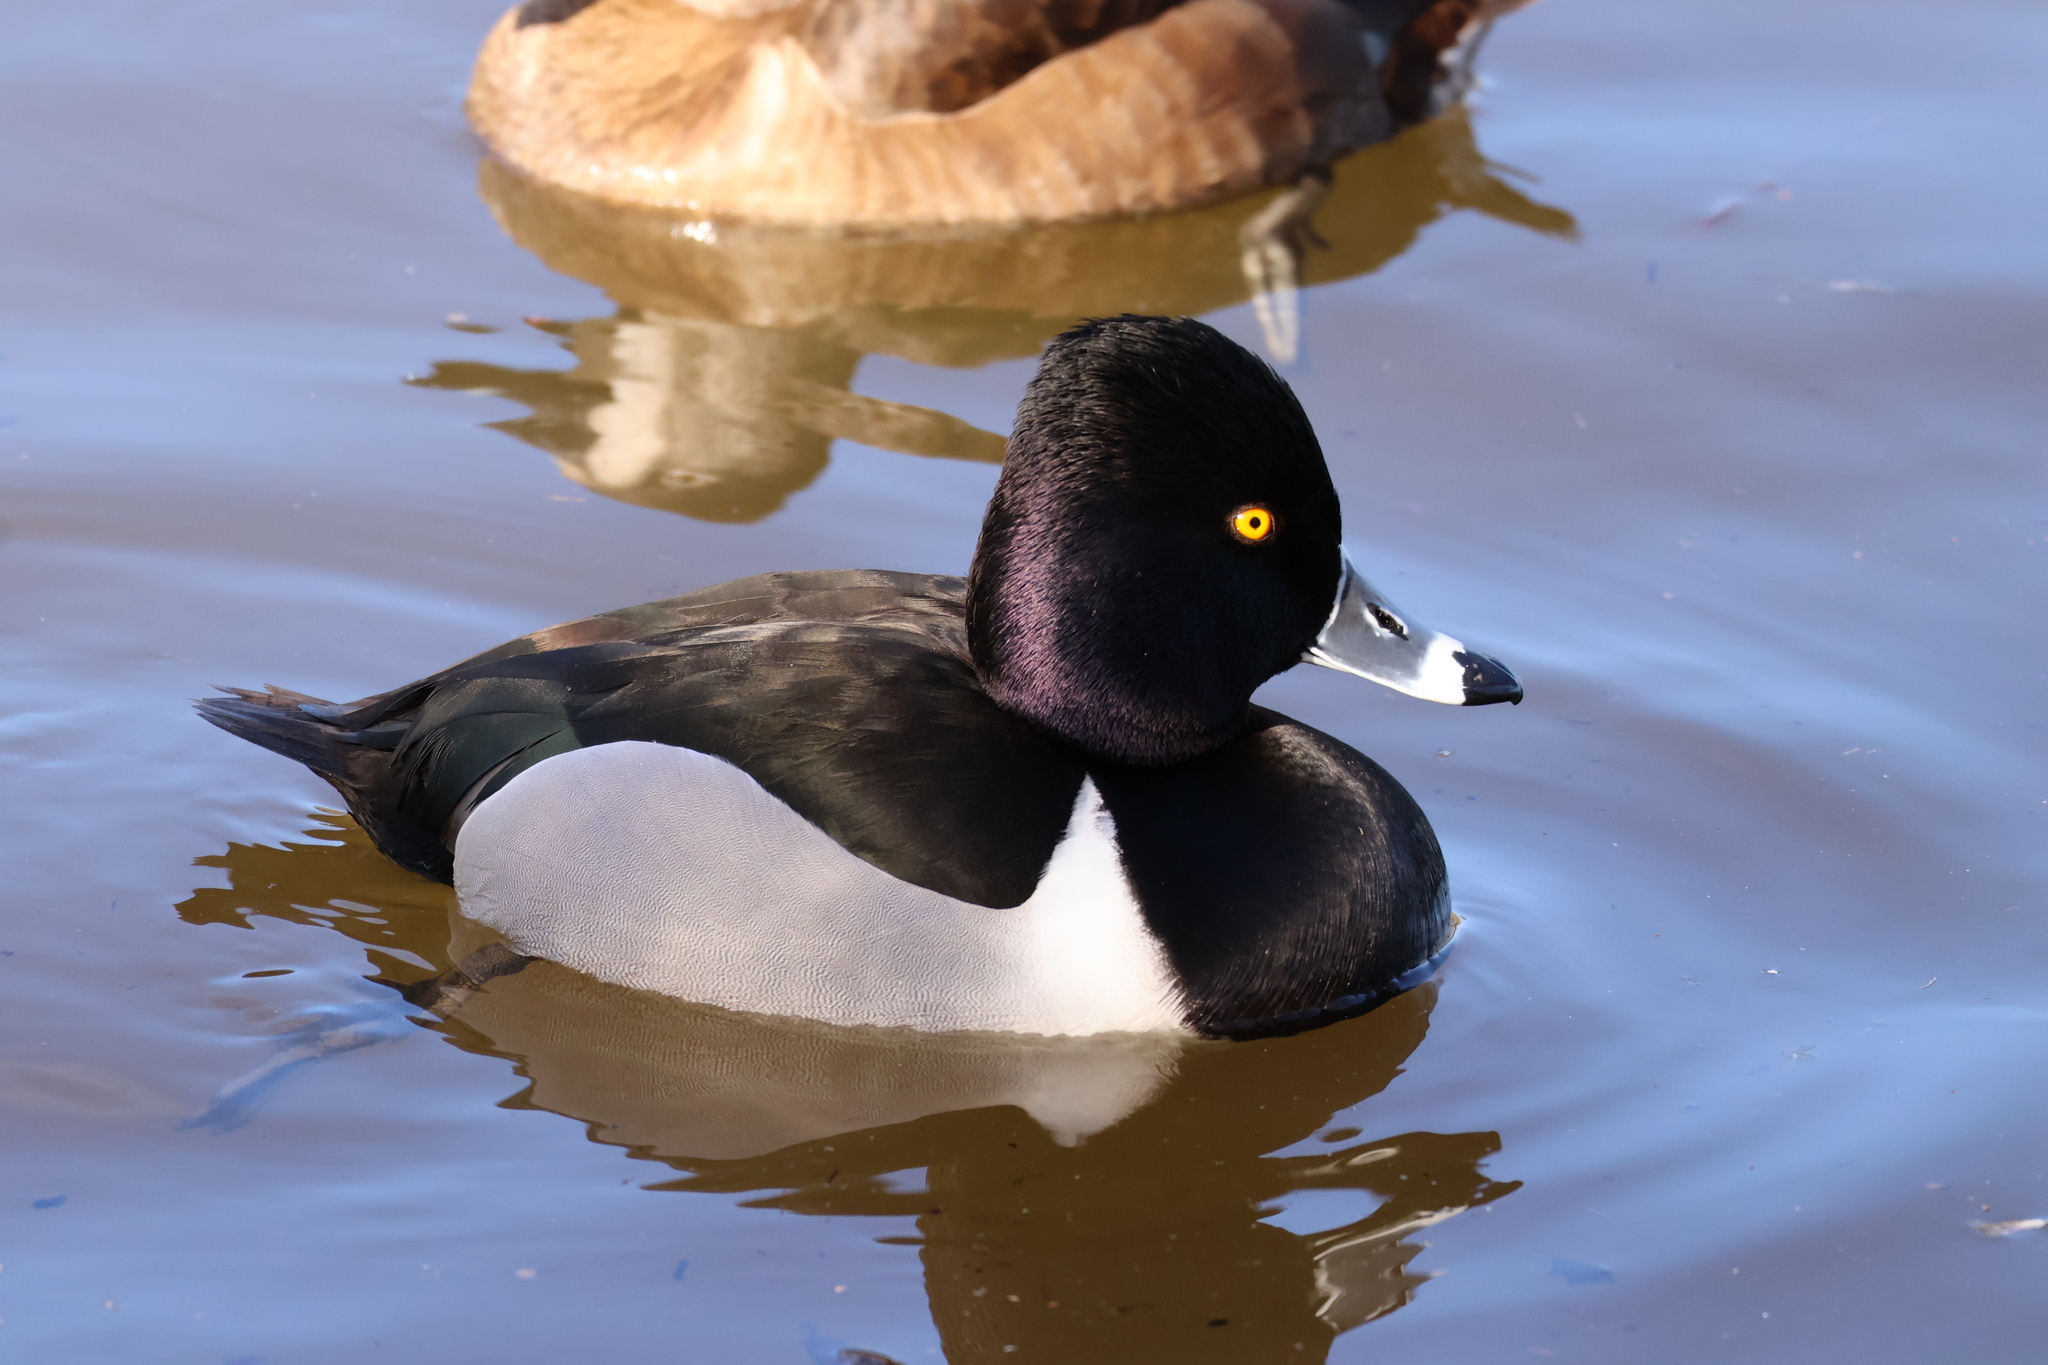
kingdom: Animalia
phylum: Chordata
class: Aves
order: Anseriformes
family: Anatidae
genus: Aythya
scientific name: Aythya collaris
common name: Ring-necked duck
